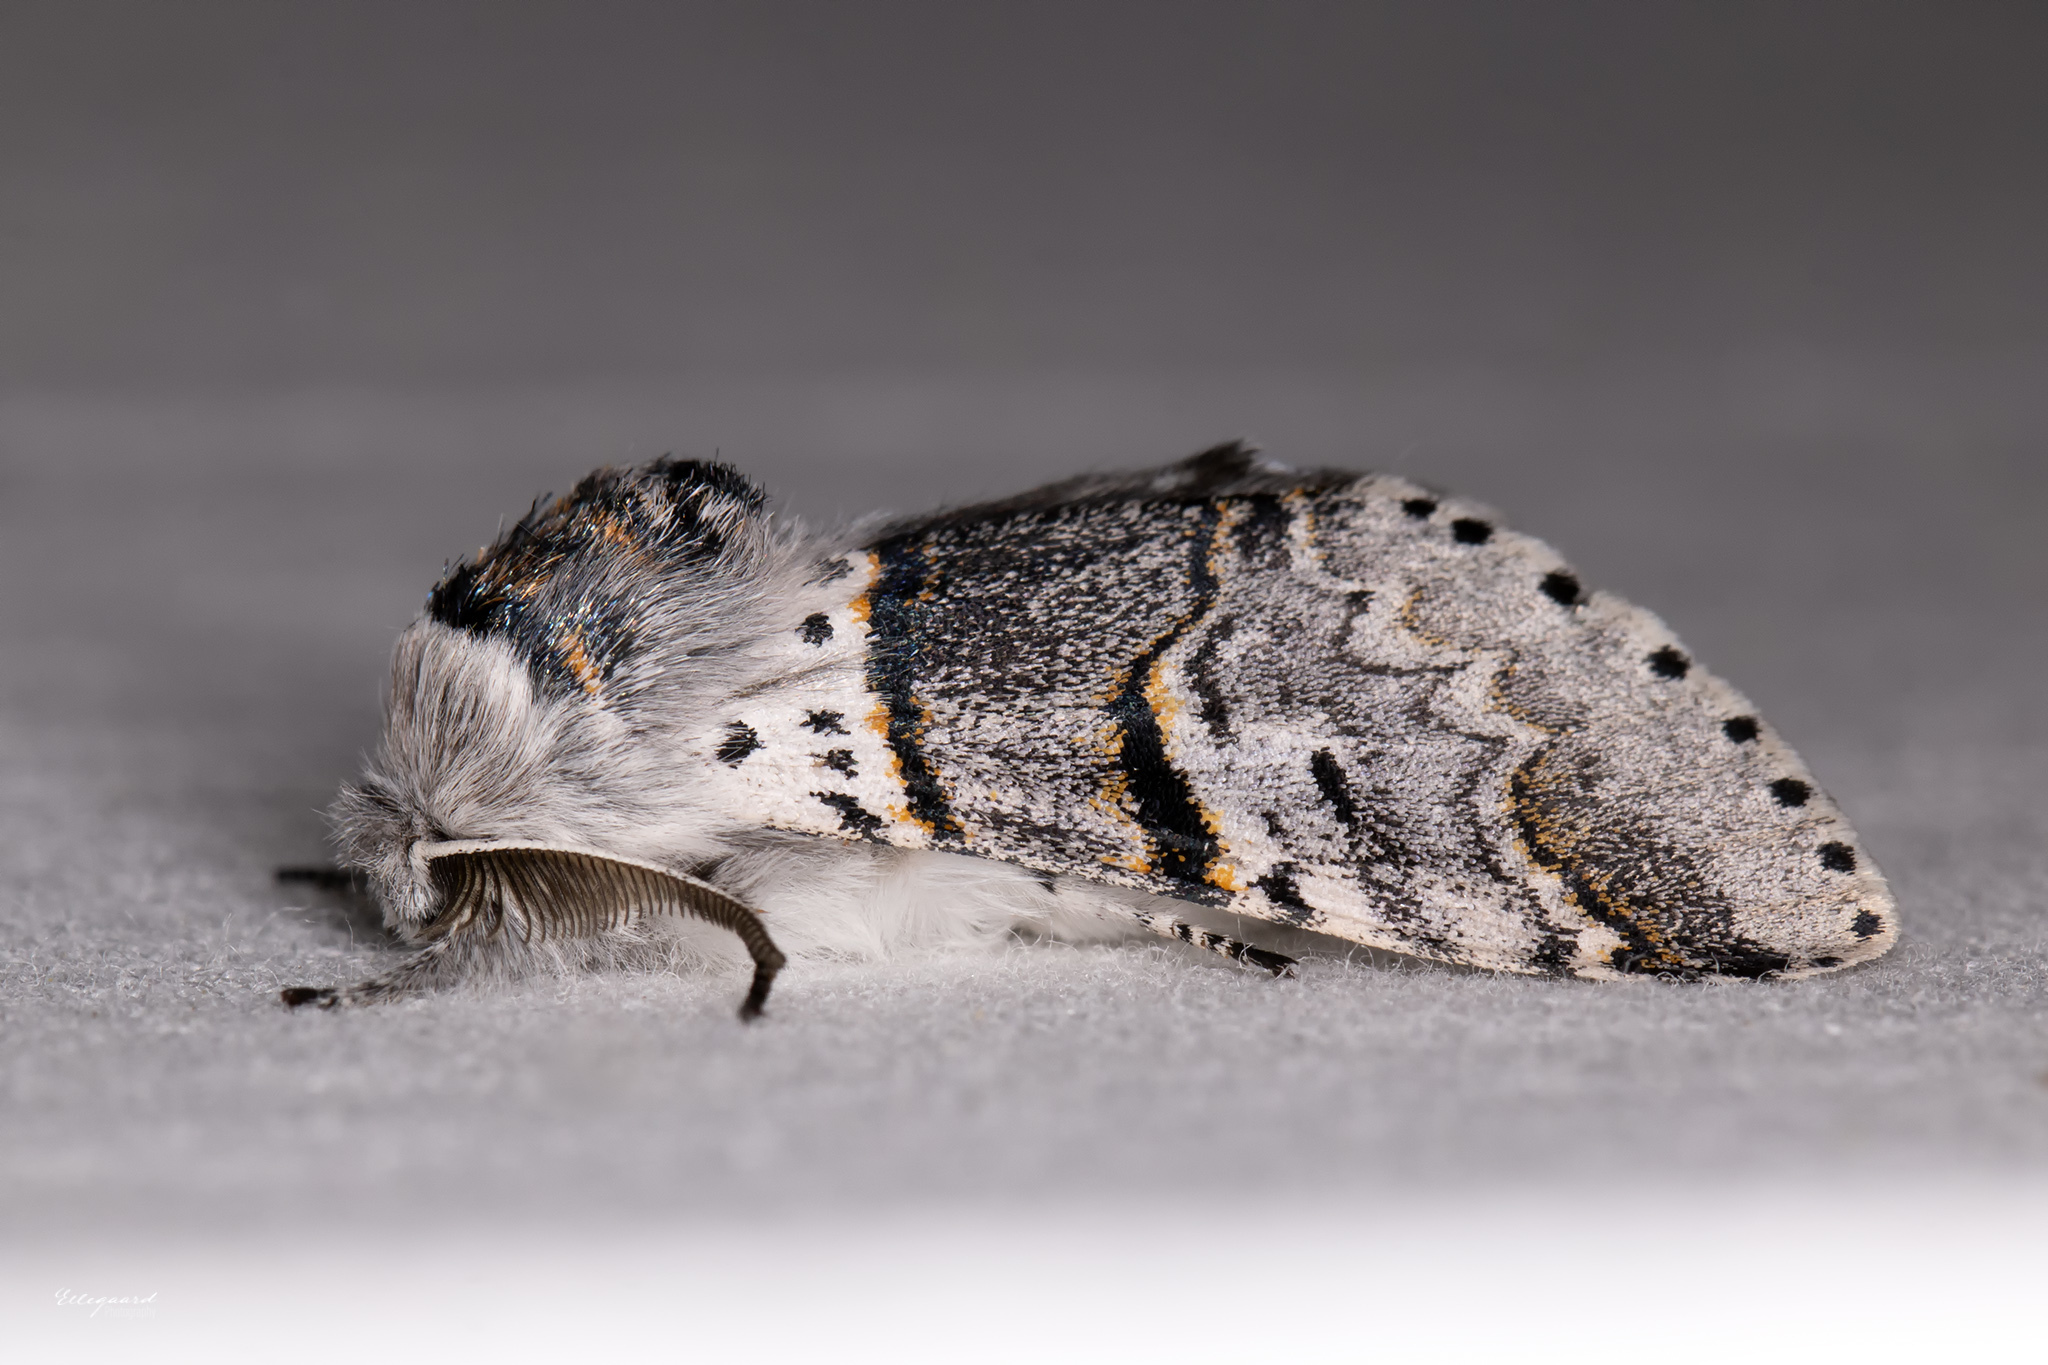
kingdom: Animalia
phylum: Arthropoda
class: Insecta
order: Lepidoptera
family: Notodontidae
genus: Furcula
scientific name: Furcula bifida
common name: Poplar kitten
